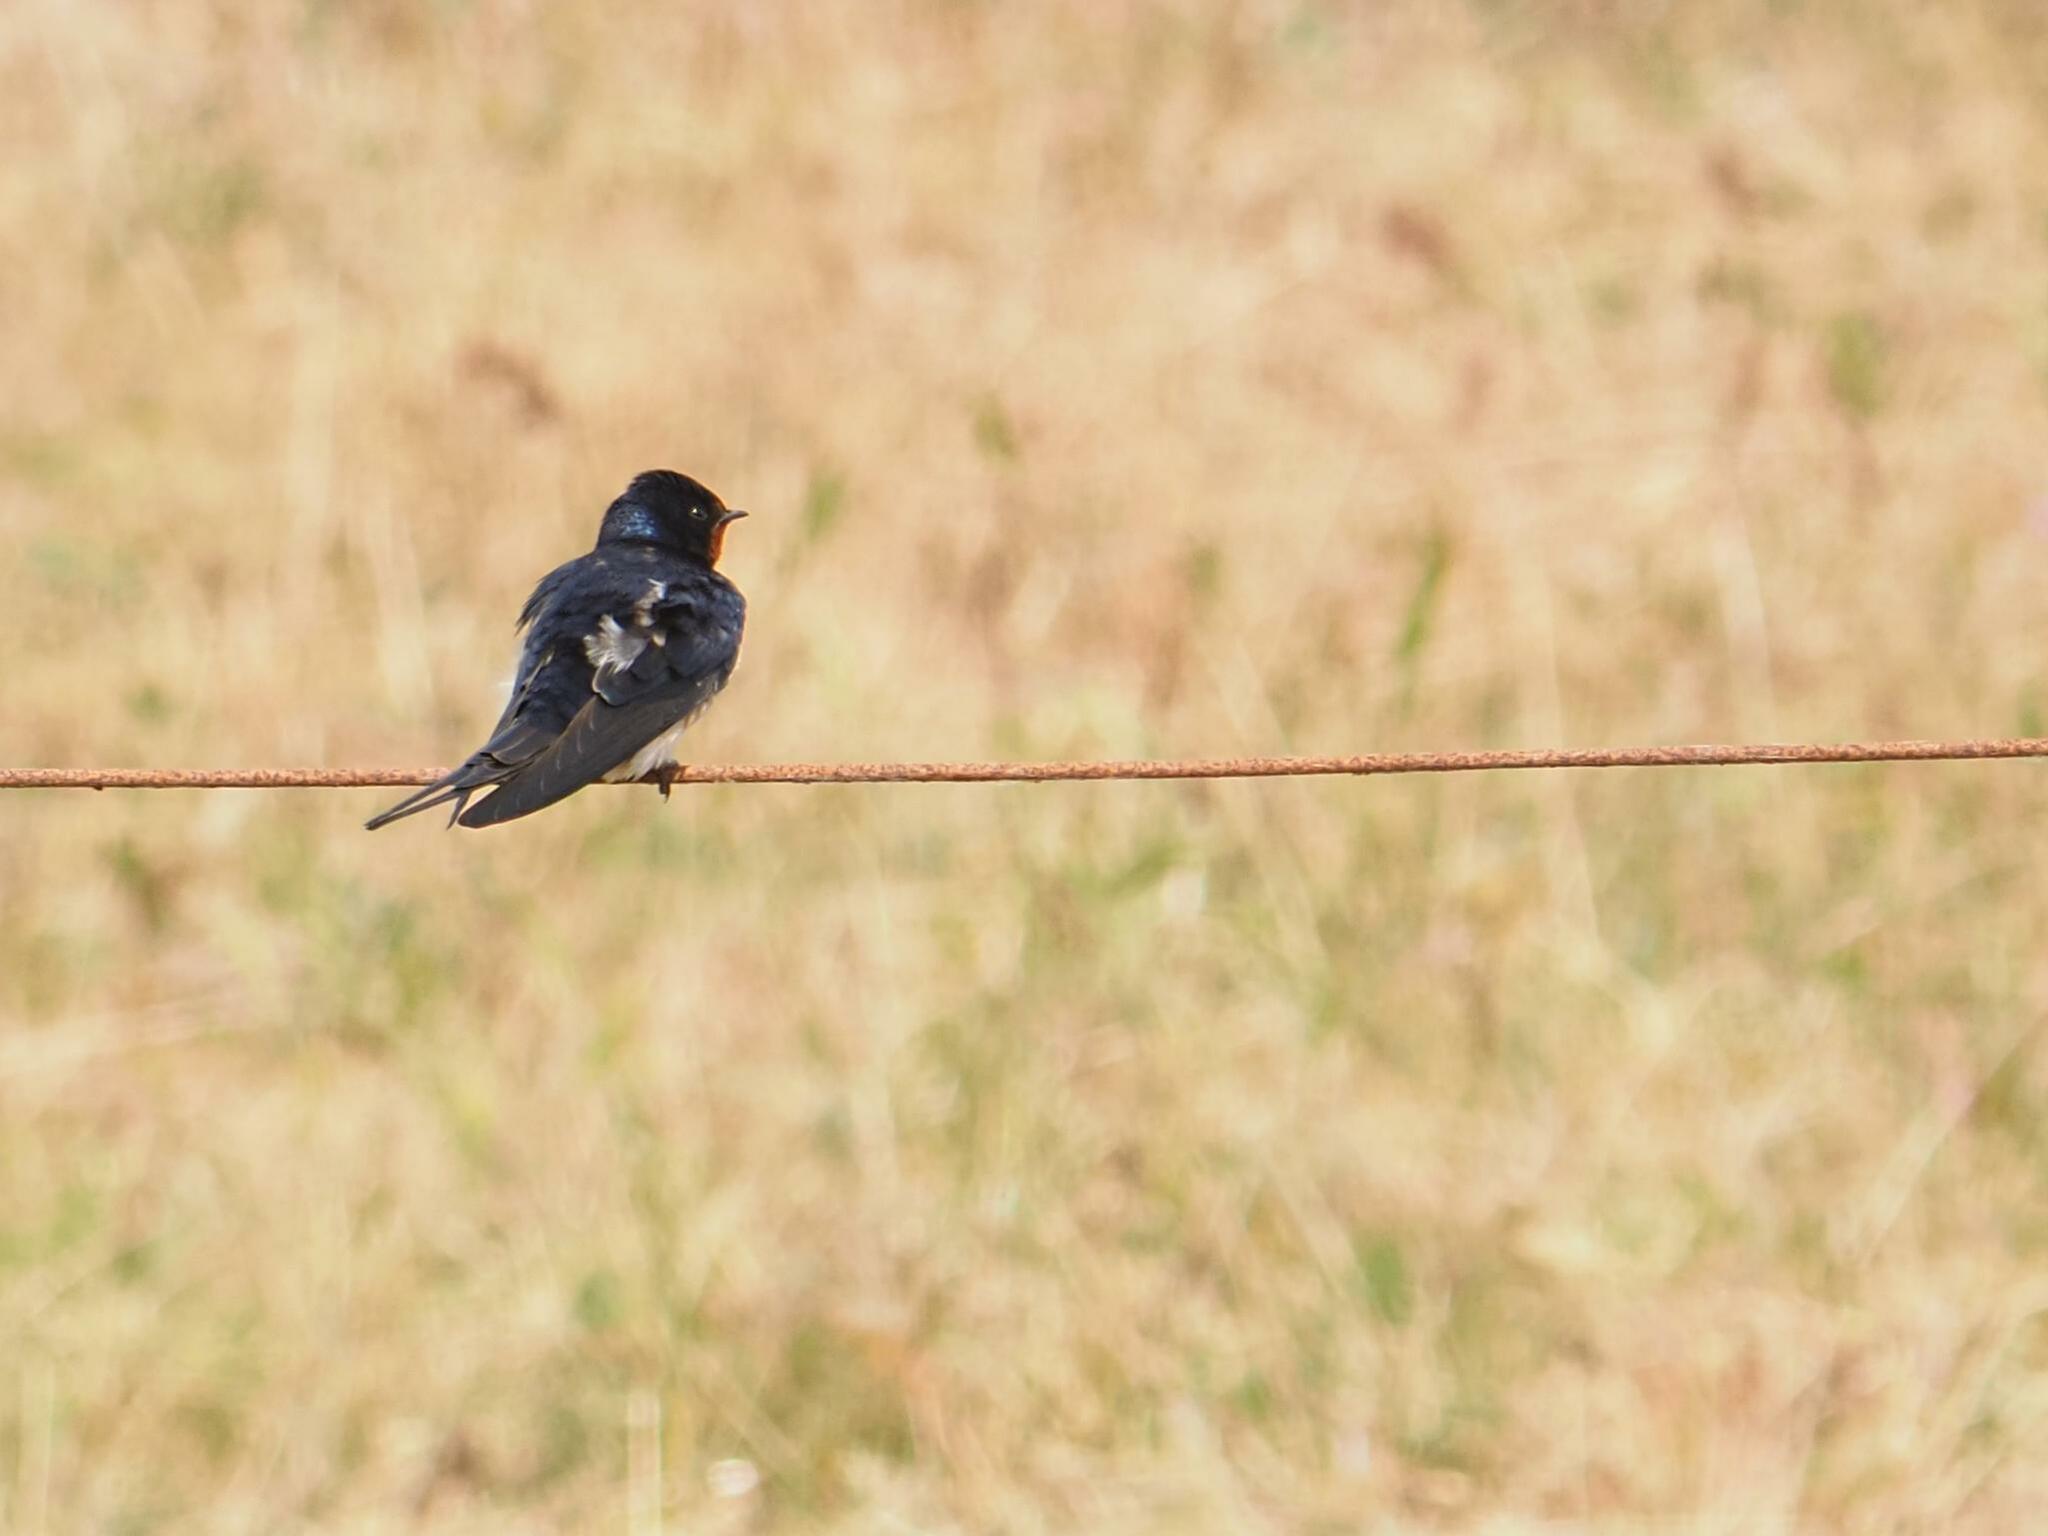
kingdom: Animalia
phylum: Chordata
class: Aves
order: Passeriformes
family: Hirundinidae
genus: Hirundo
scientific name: Hirundo rustica
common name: Barn swallow
